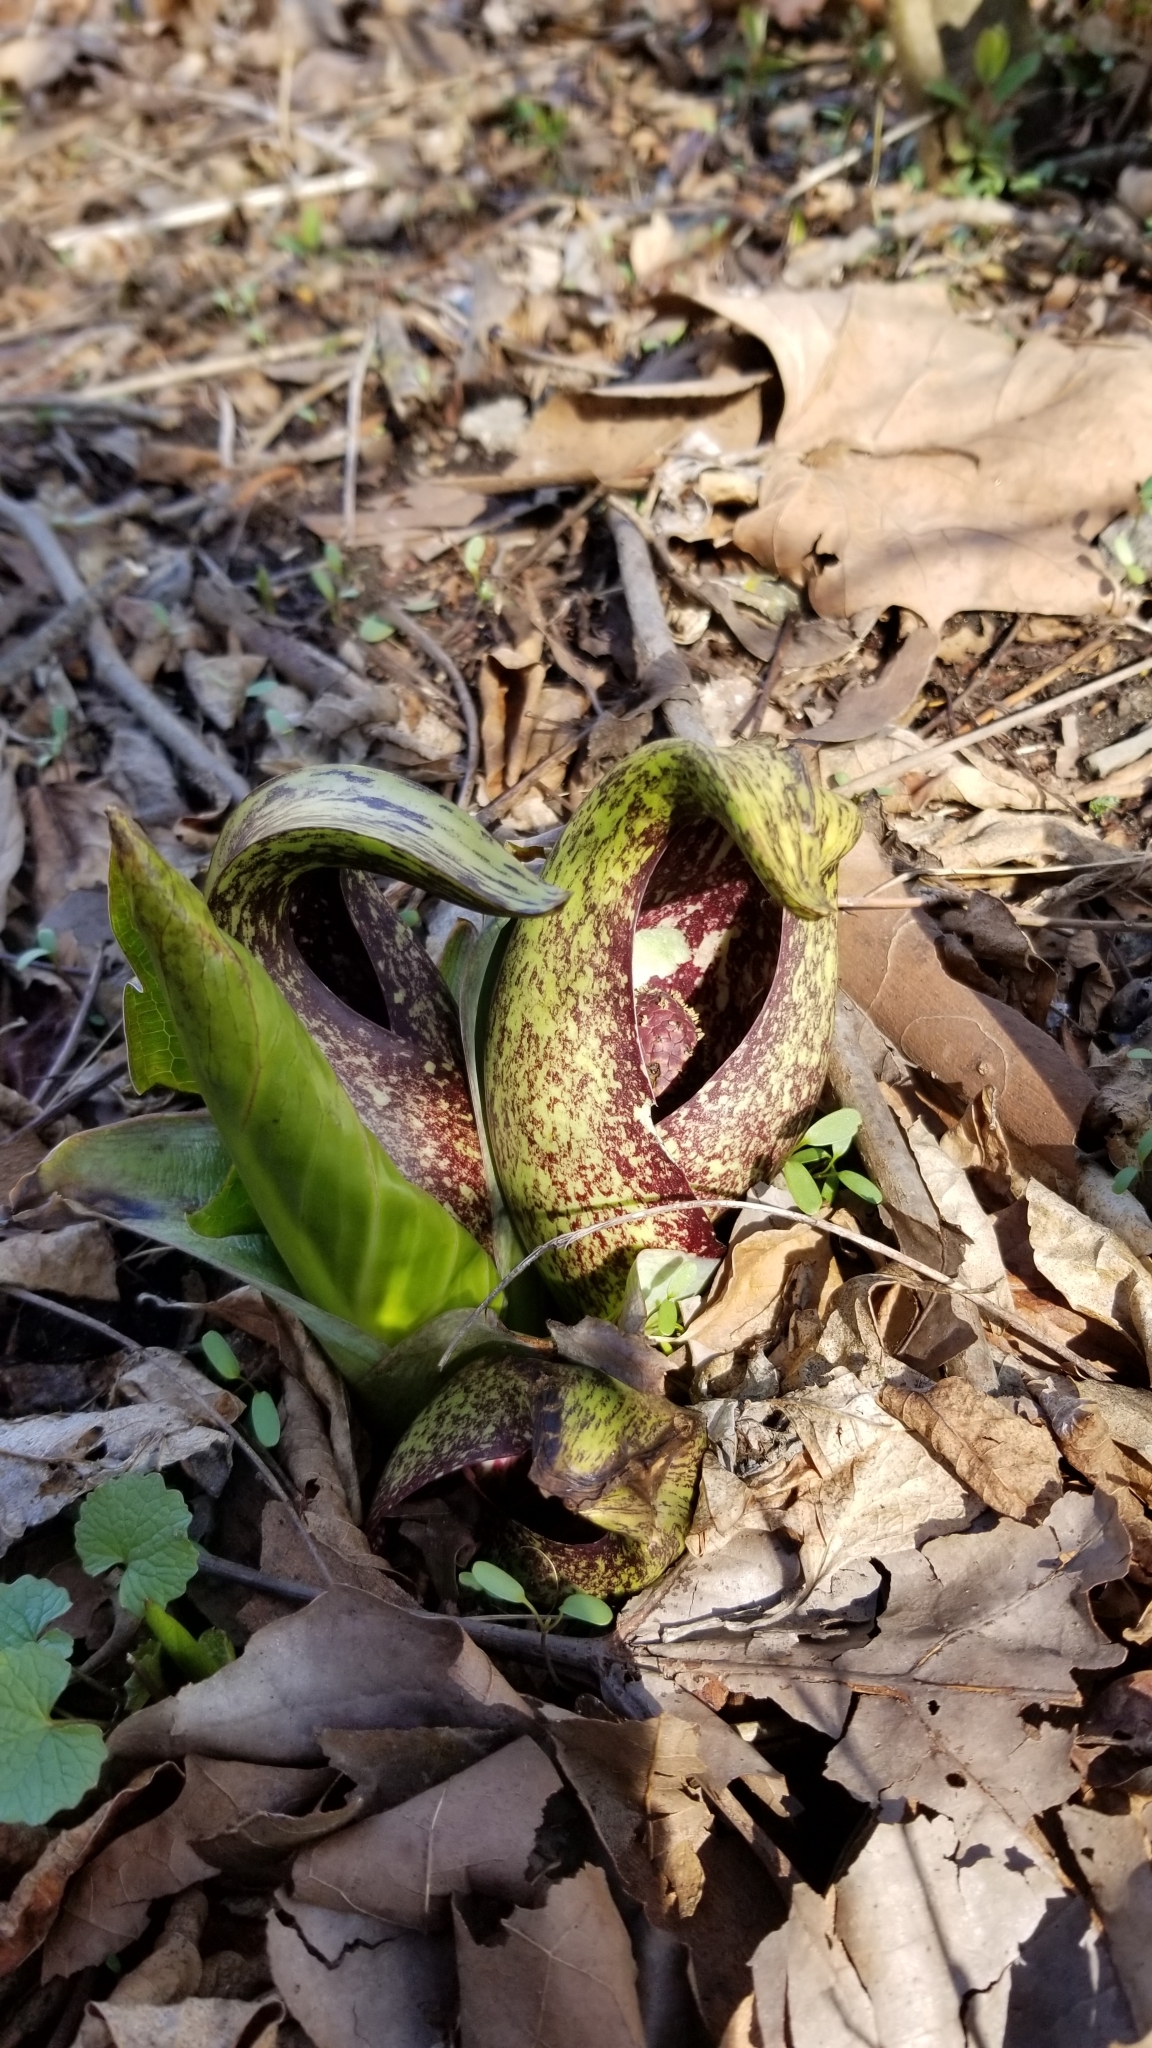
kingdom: Plantae
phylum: Tracheophyta
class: Liliopsida
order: Alismatales
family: Araceae
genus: Symplocarpus
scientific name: Symplocarpus foetidus
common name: Eastern skunk cabbage
